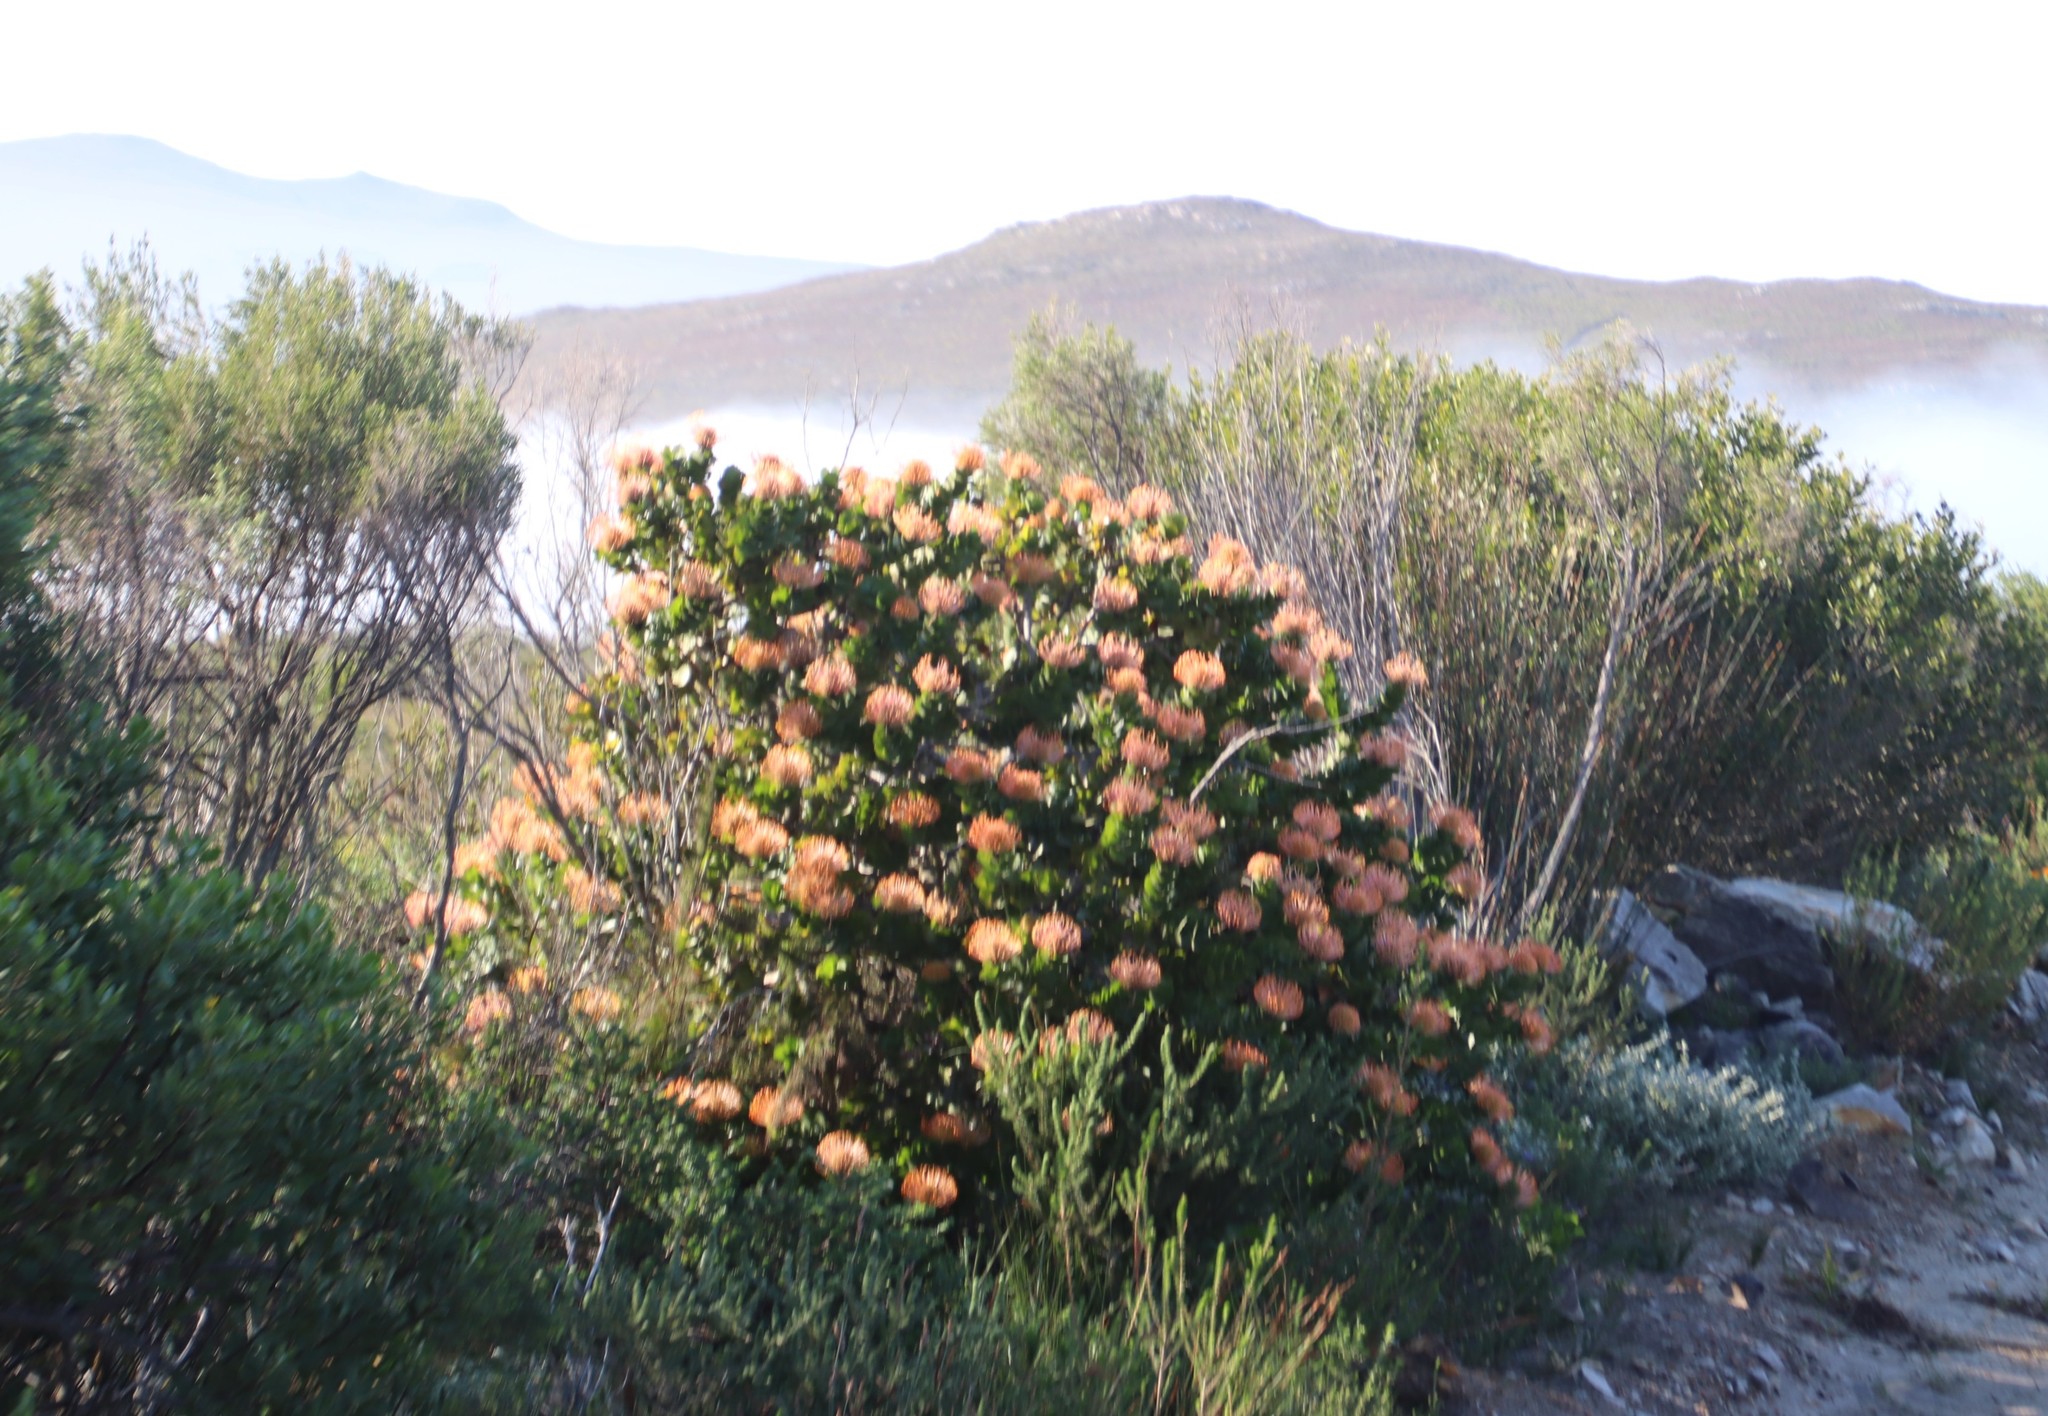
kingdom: Plantae
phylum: Tracheophyta
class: Magnoliopsida
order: Proteales
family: Proteaceae
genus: Leucospermum
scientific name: Leucospermum patersonii
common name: False tree pincushion
